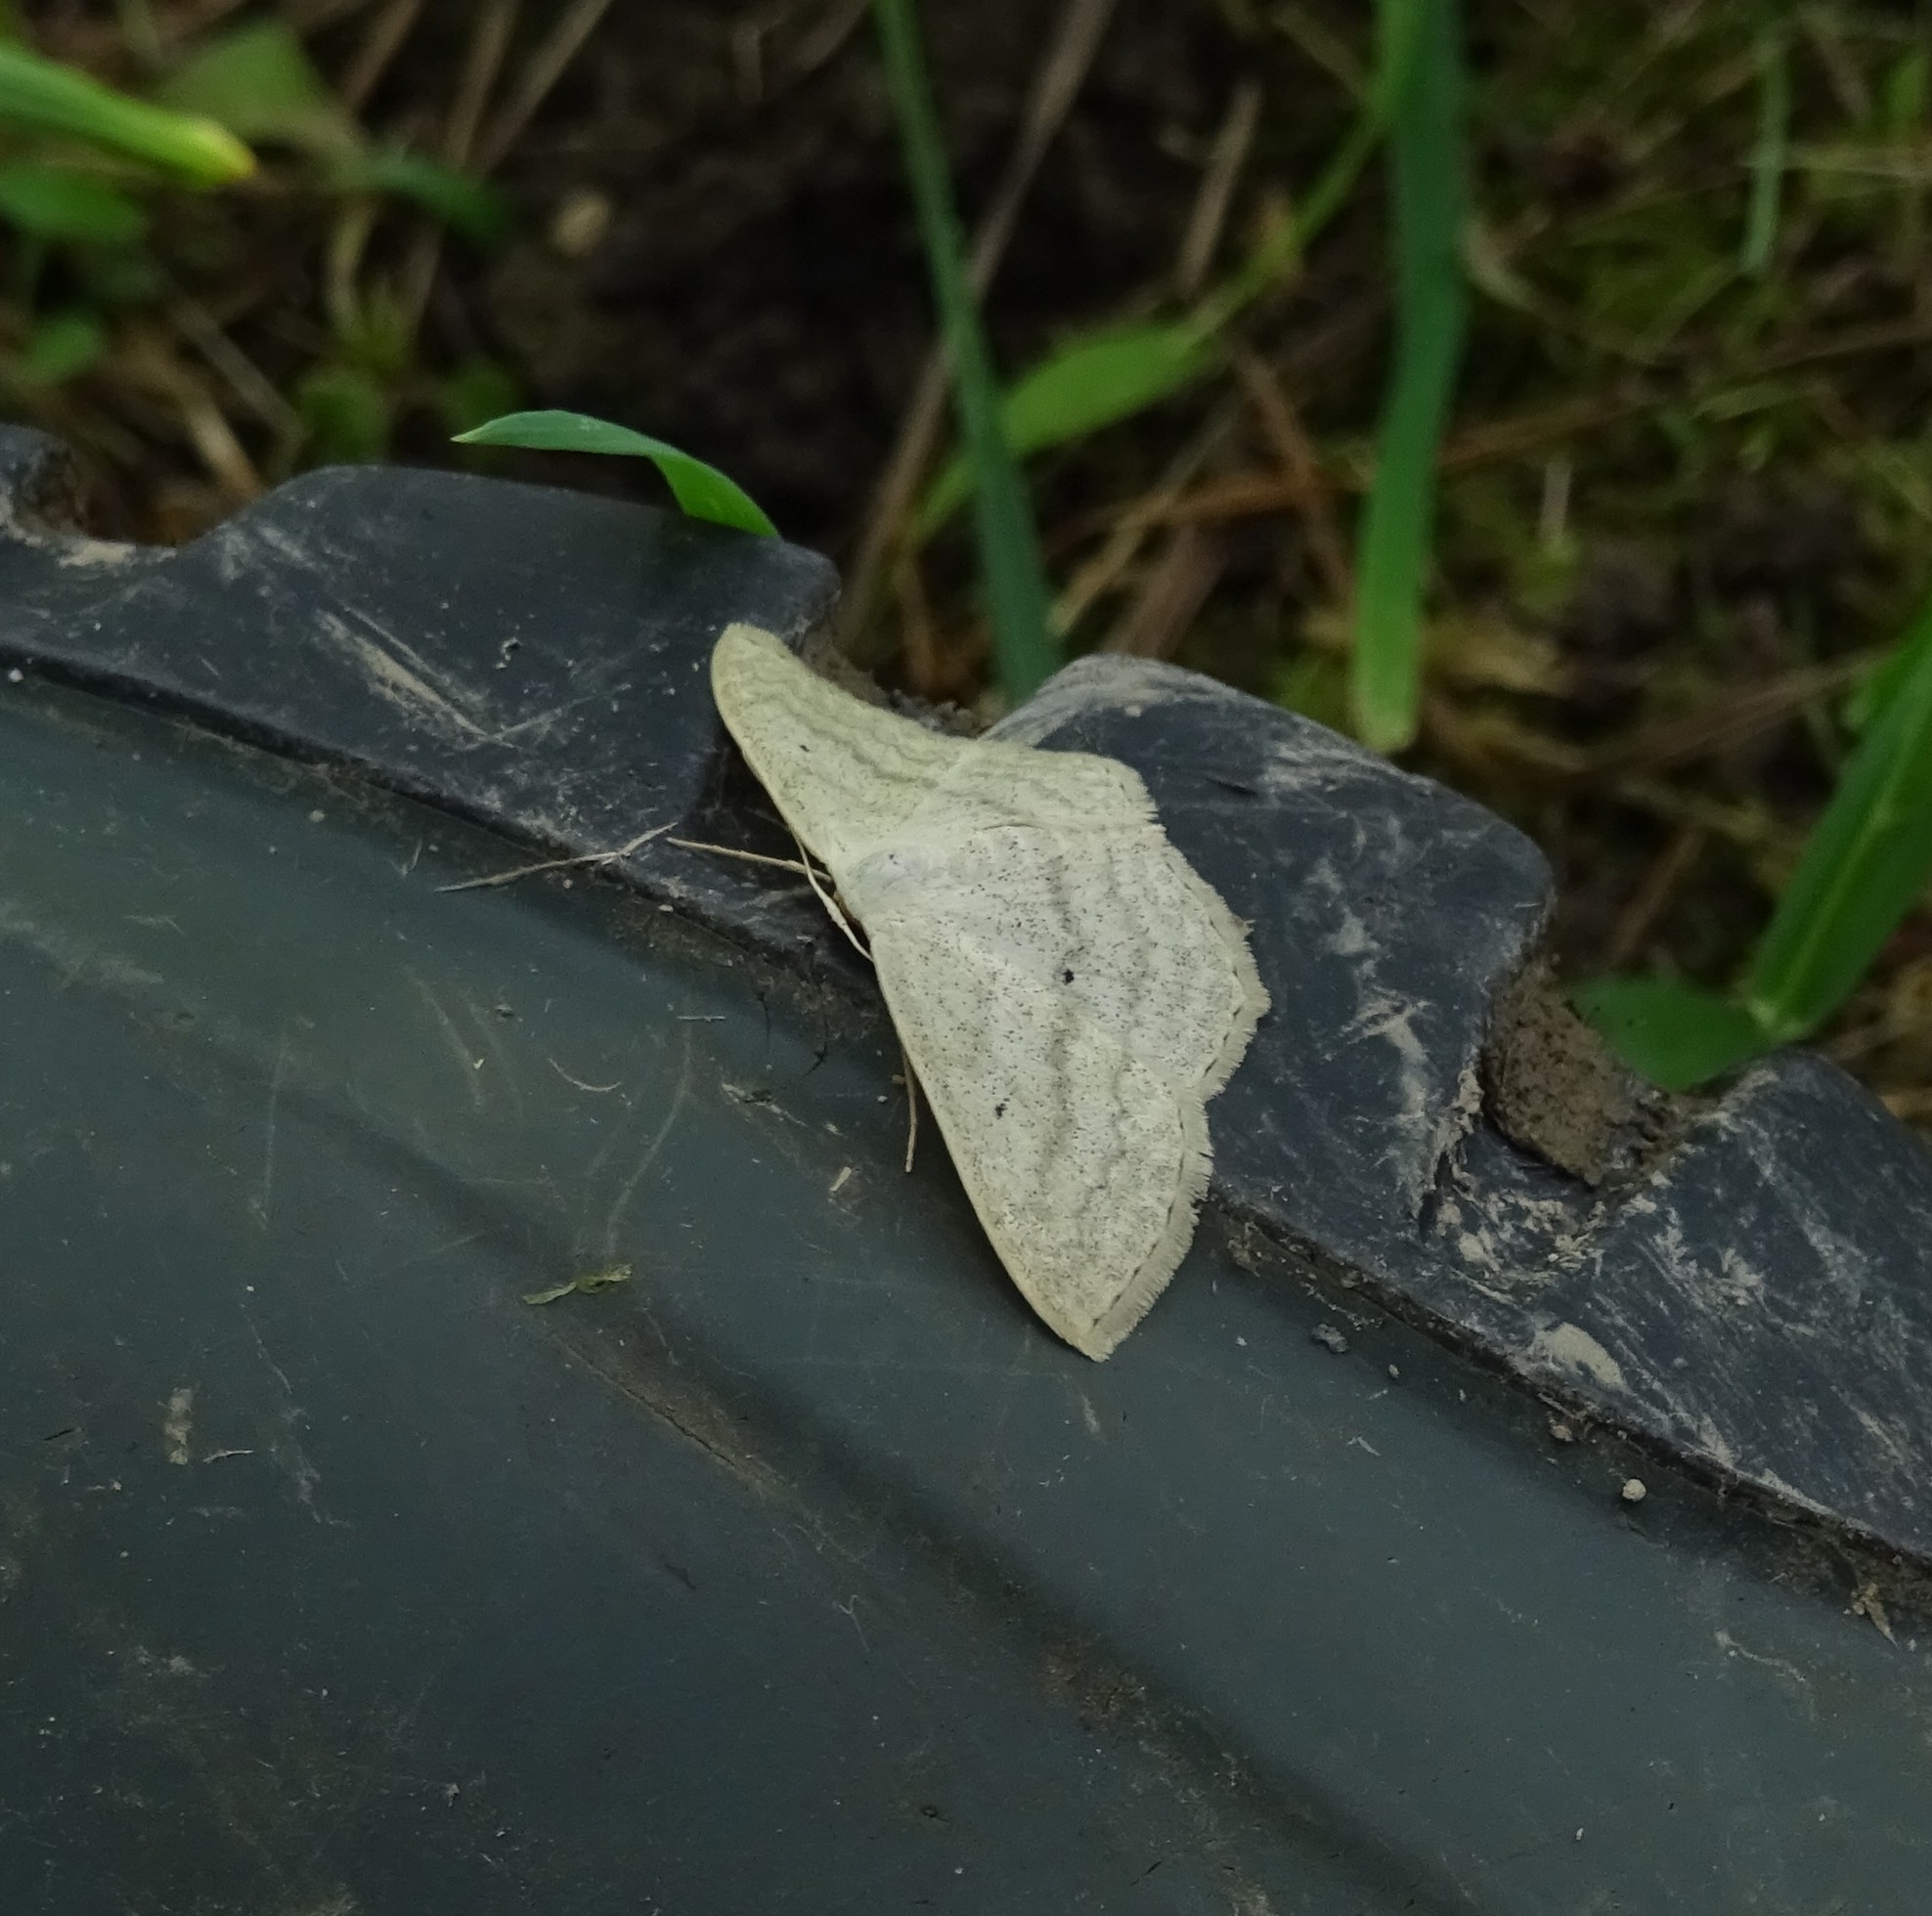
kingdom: Animalia
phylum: Arthropoda
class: Insecta
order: Lepidoptera
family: Geometridae
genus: Scopula
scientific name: Scopula nigropunctata
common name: Sub-angled wave
